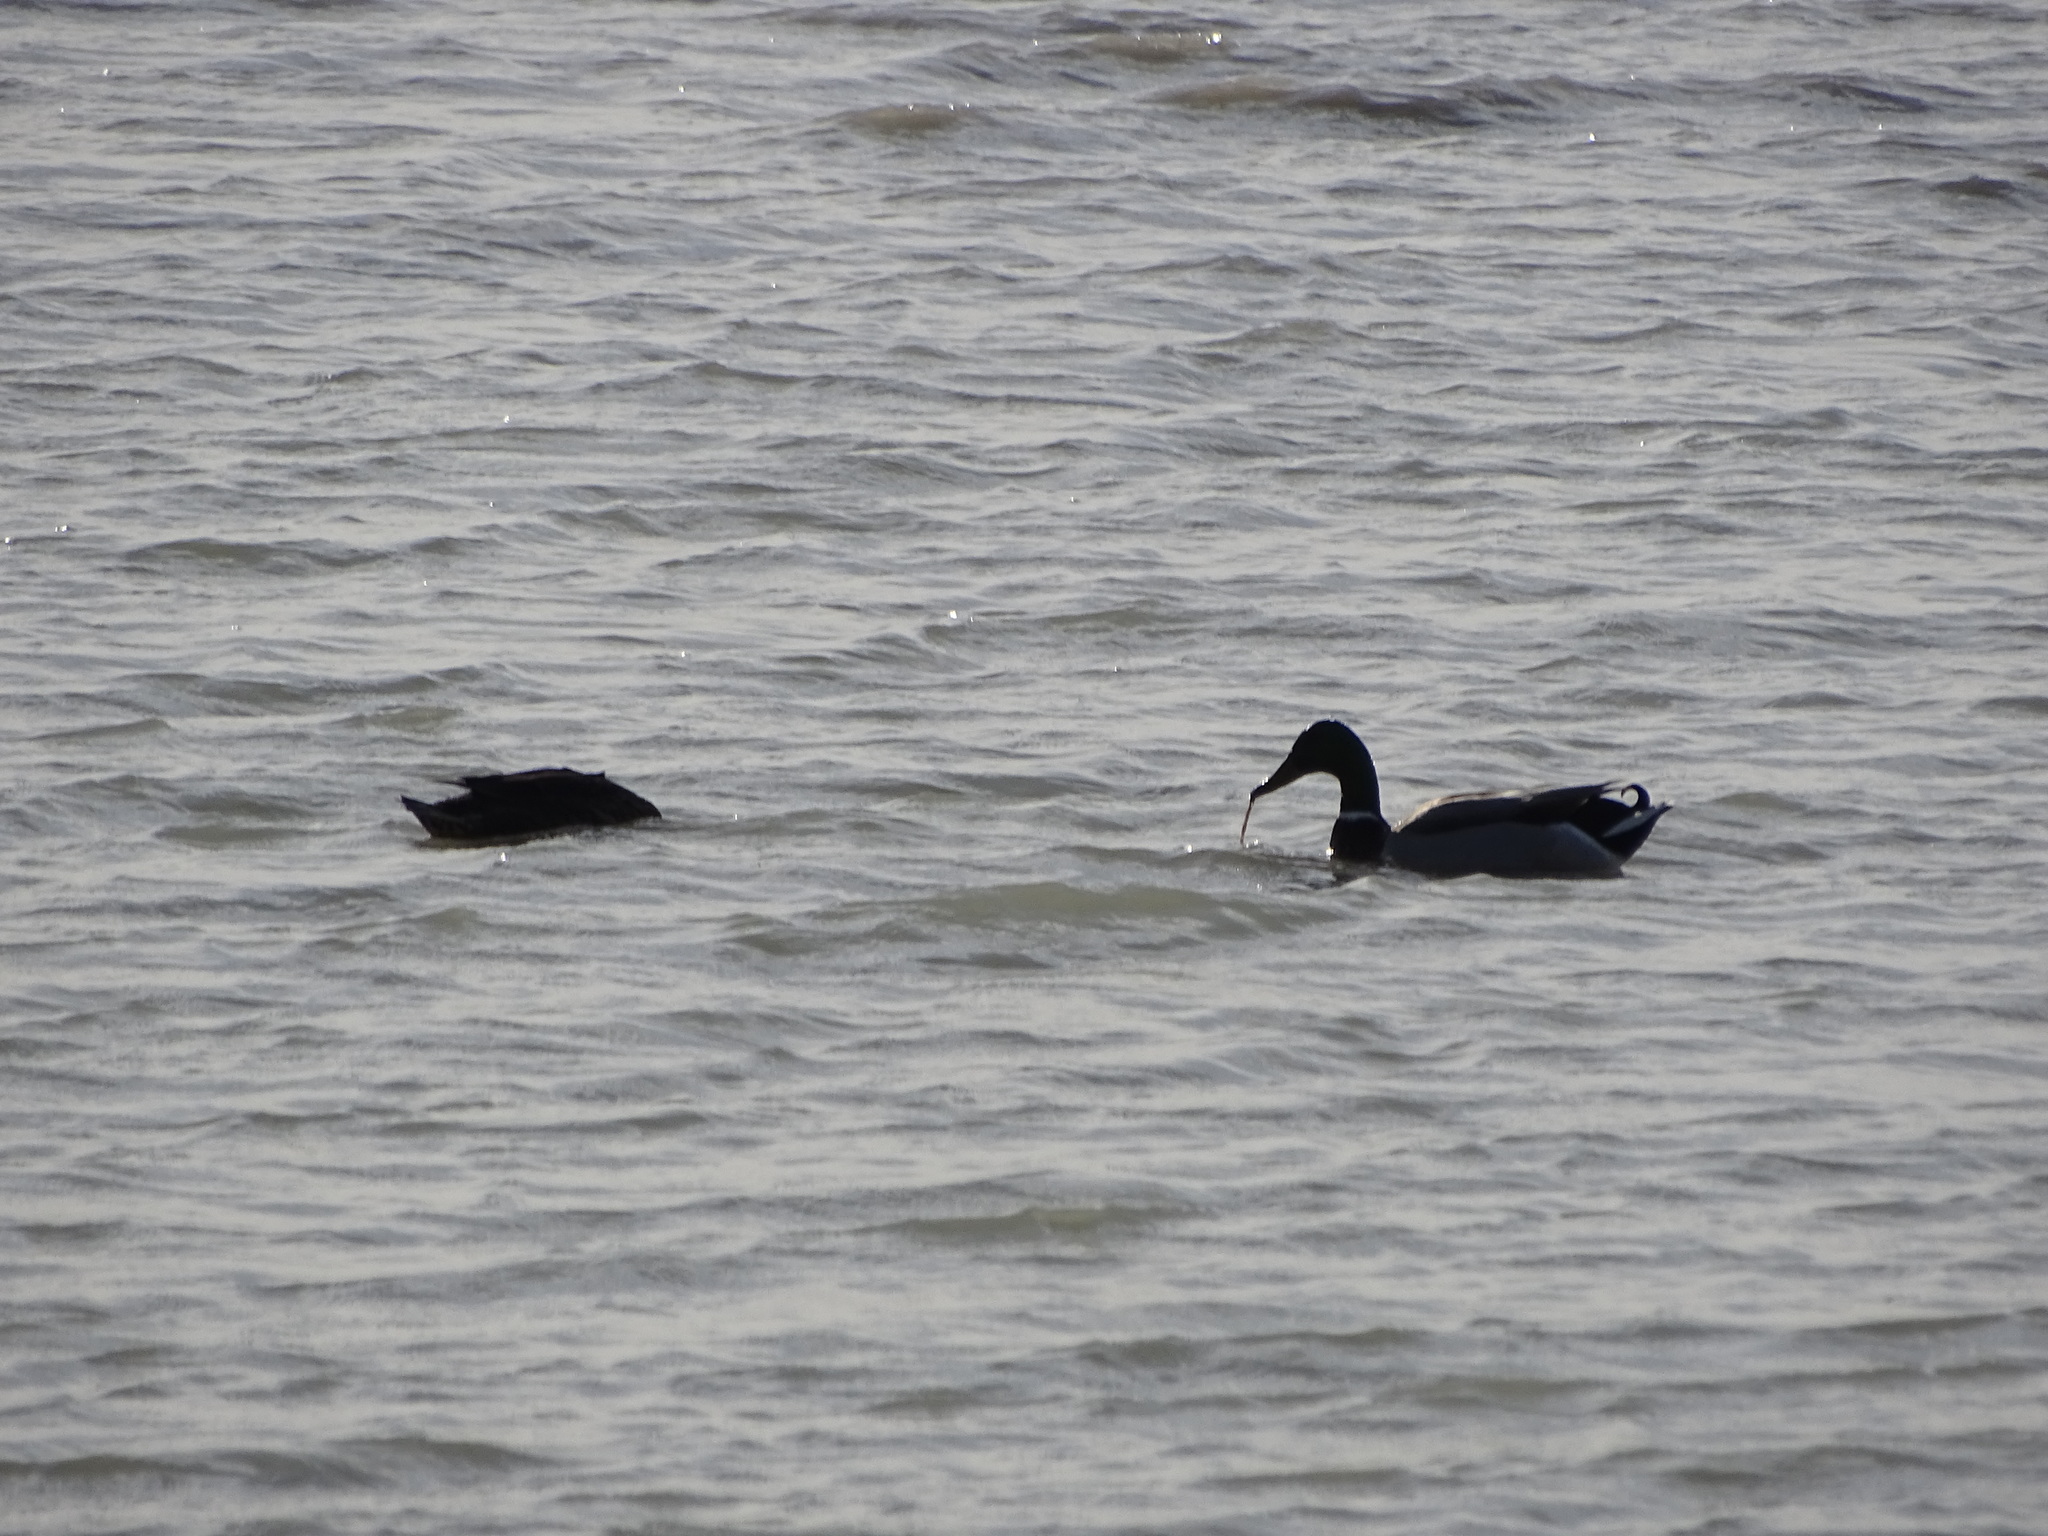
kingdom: Animalia
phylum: Chordata
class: Aves
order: Anseriformes
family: Anatidae
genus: Anas
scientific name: Anas platyrhynchos
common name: Mallard
